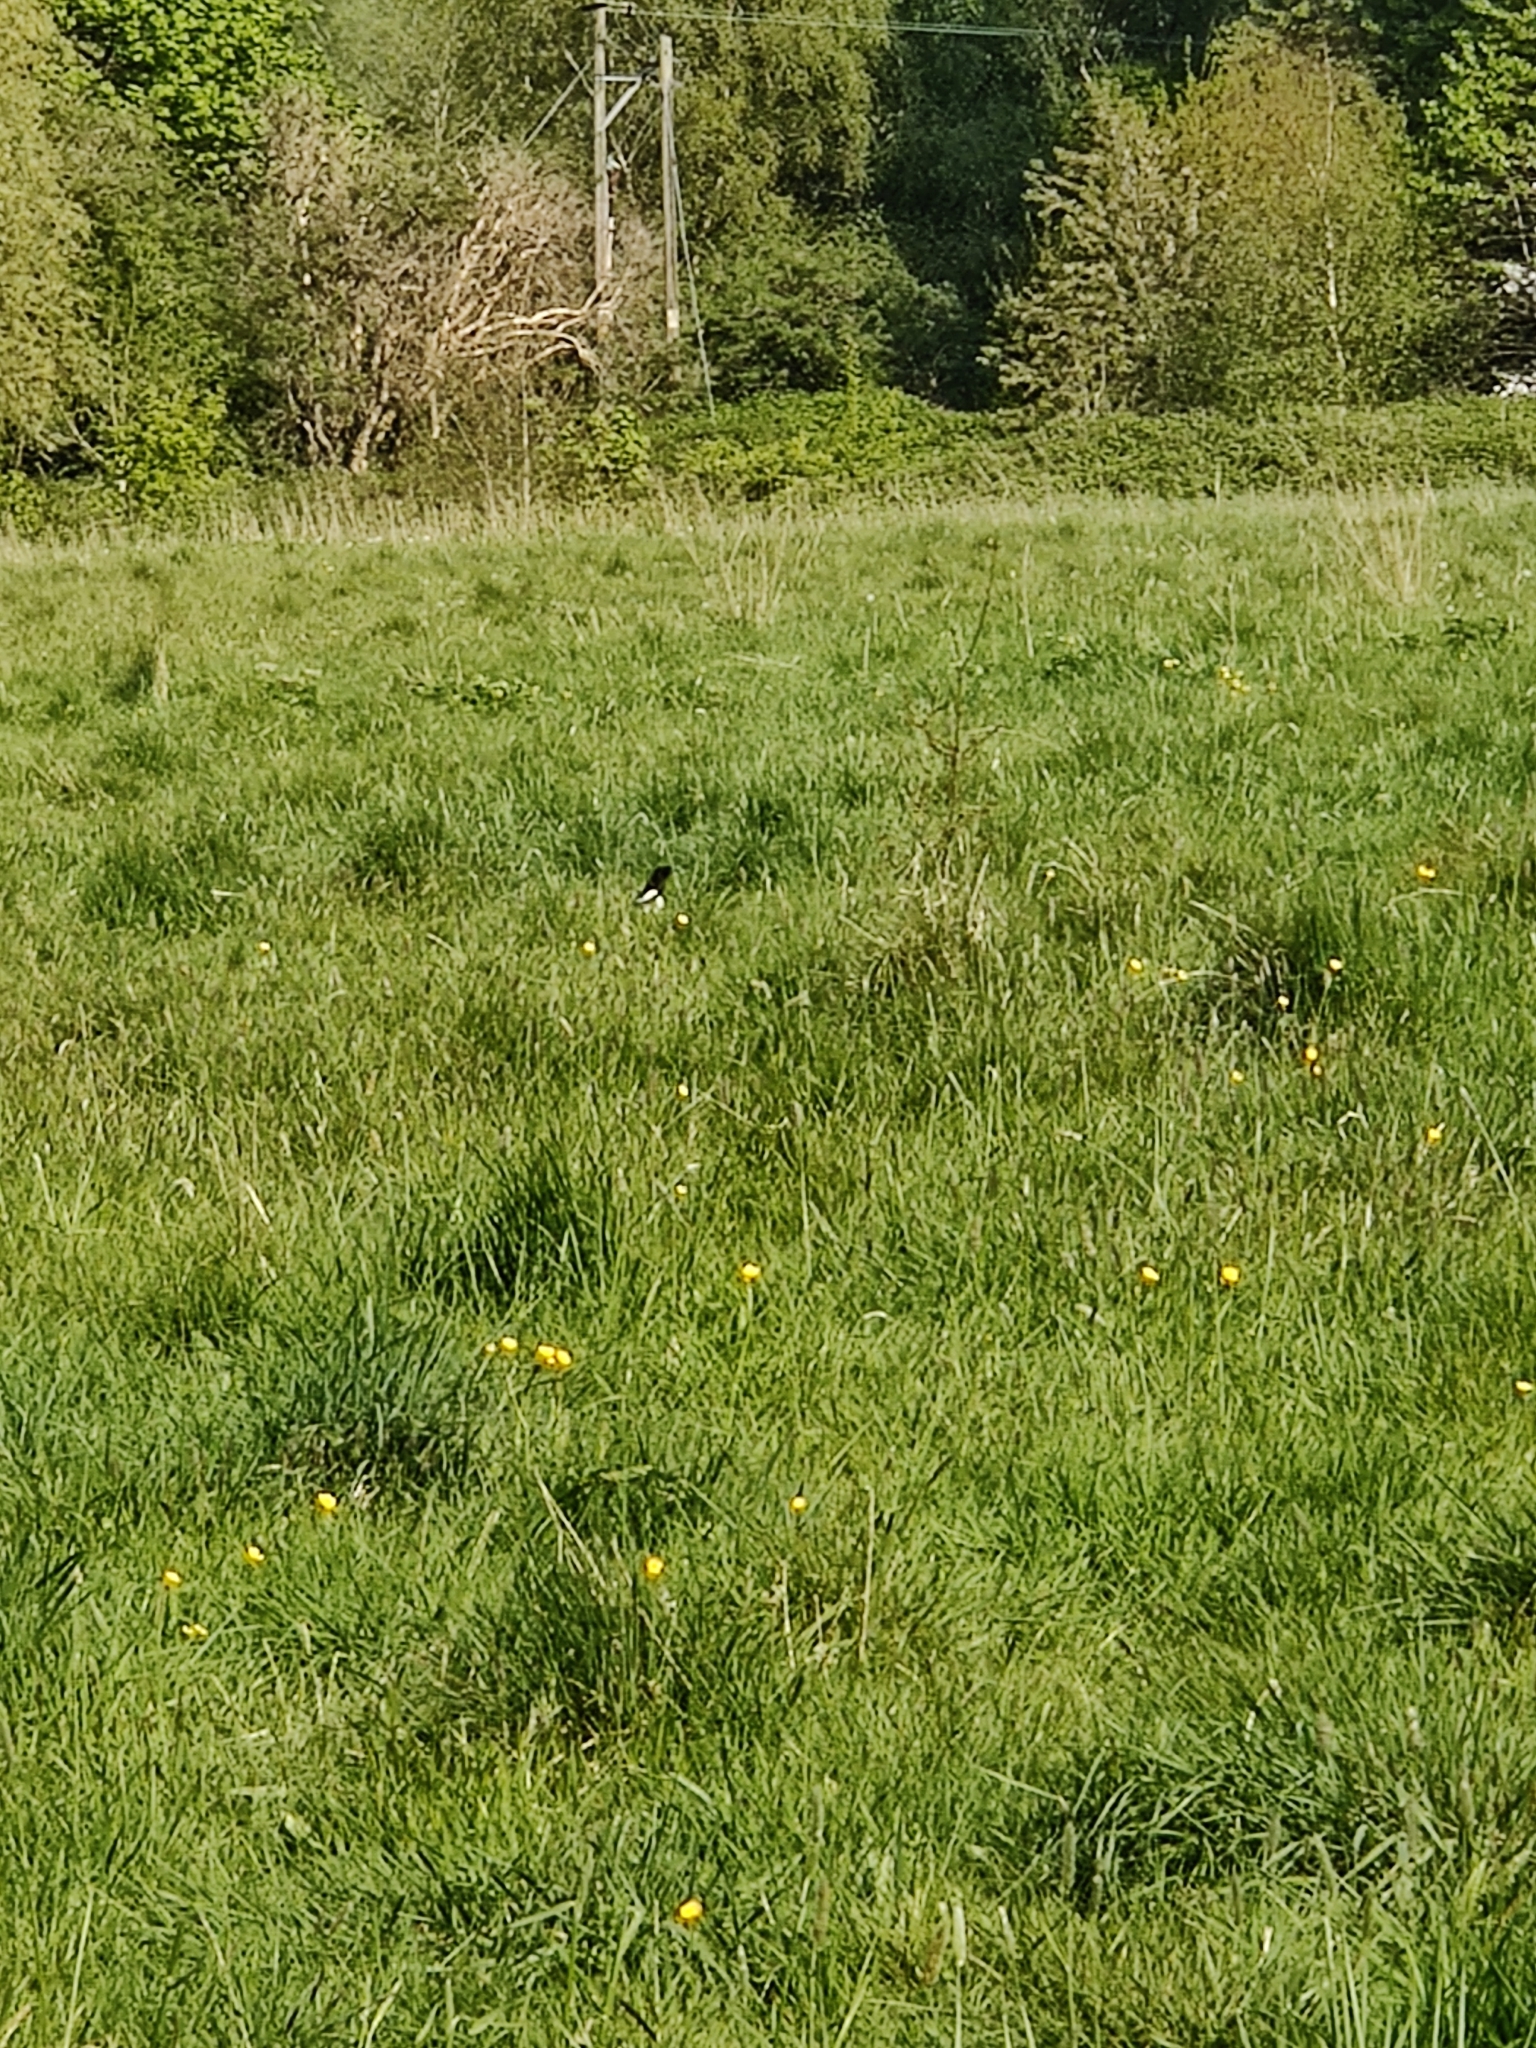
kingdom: Animalia
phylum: Chordata
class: Aves
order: Passeriformes
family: Corvidae
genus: Pica
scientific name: Pica pica
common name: Eurasian magpie
